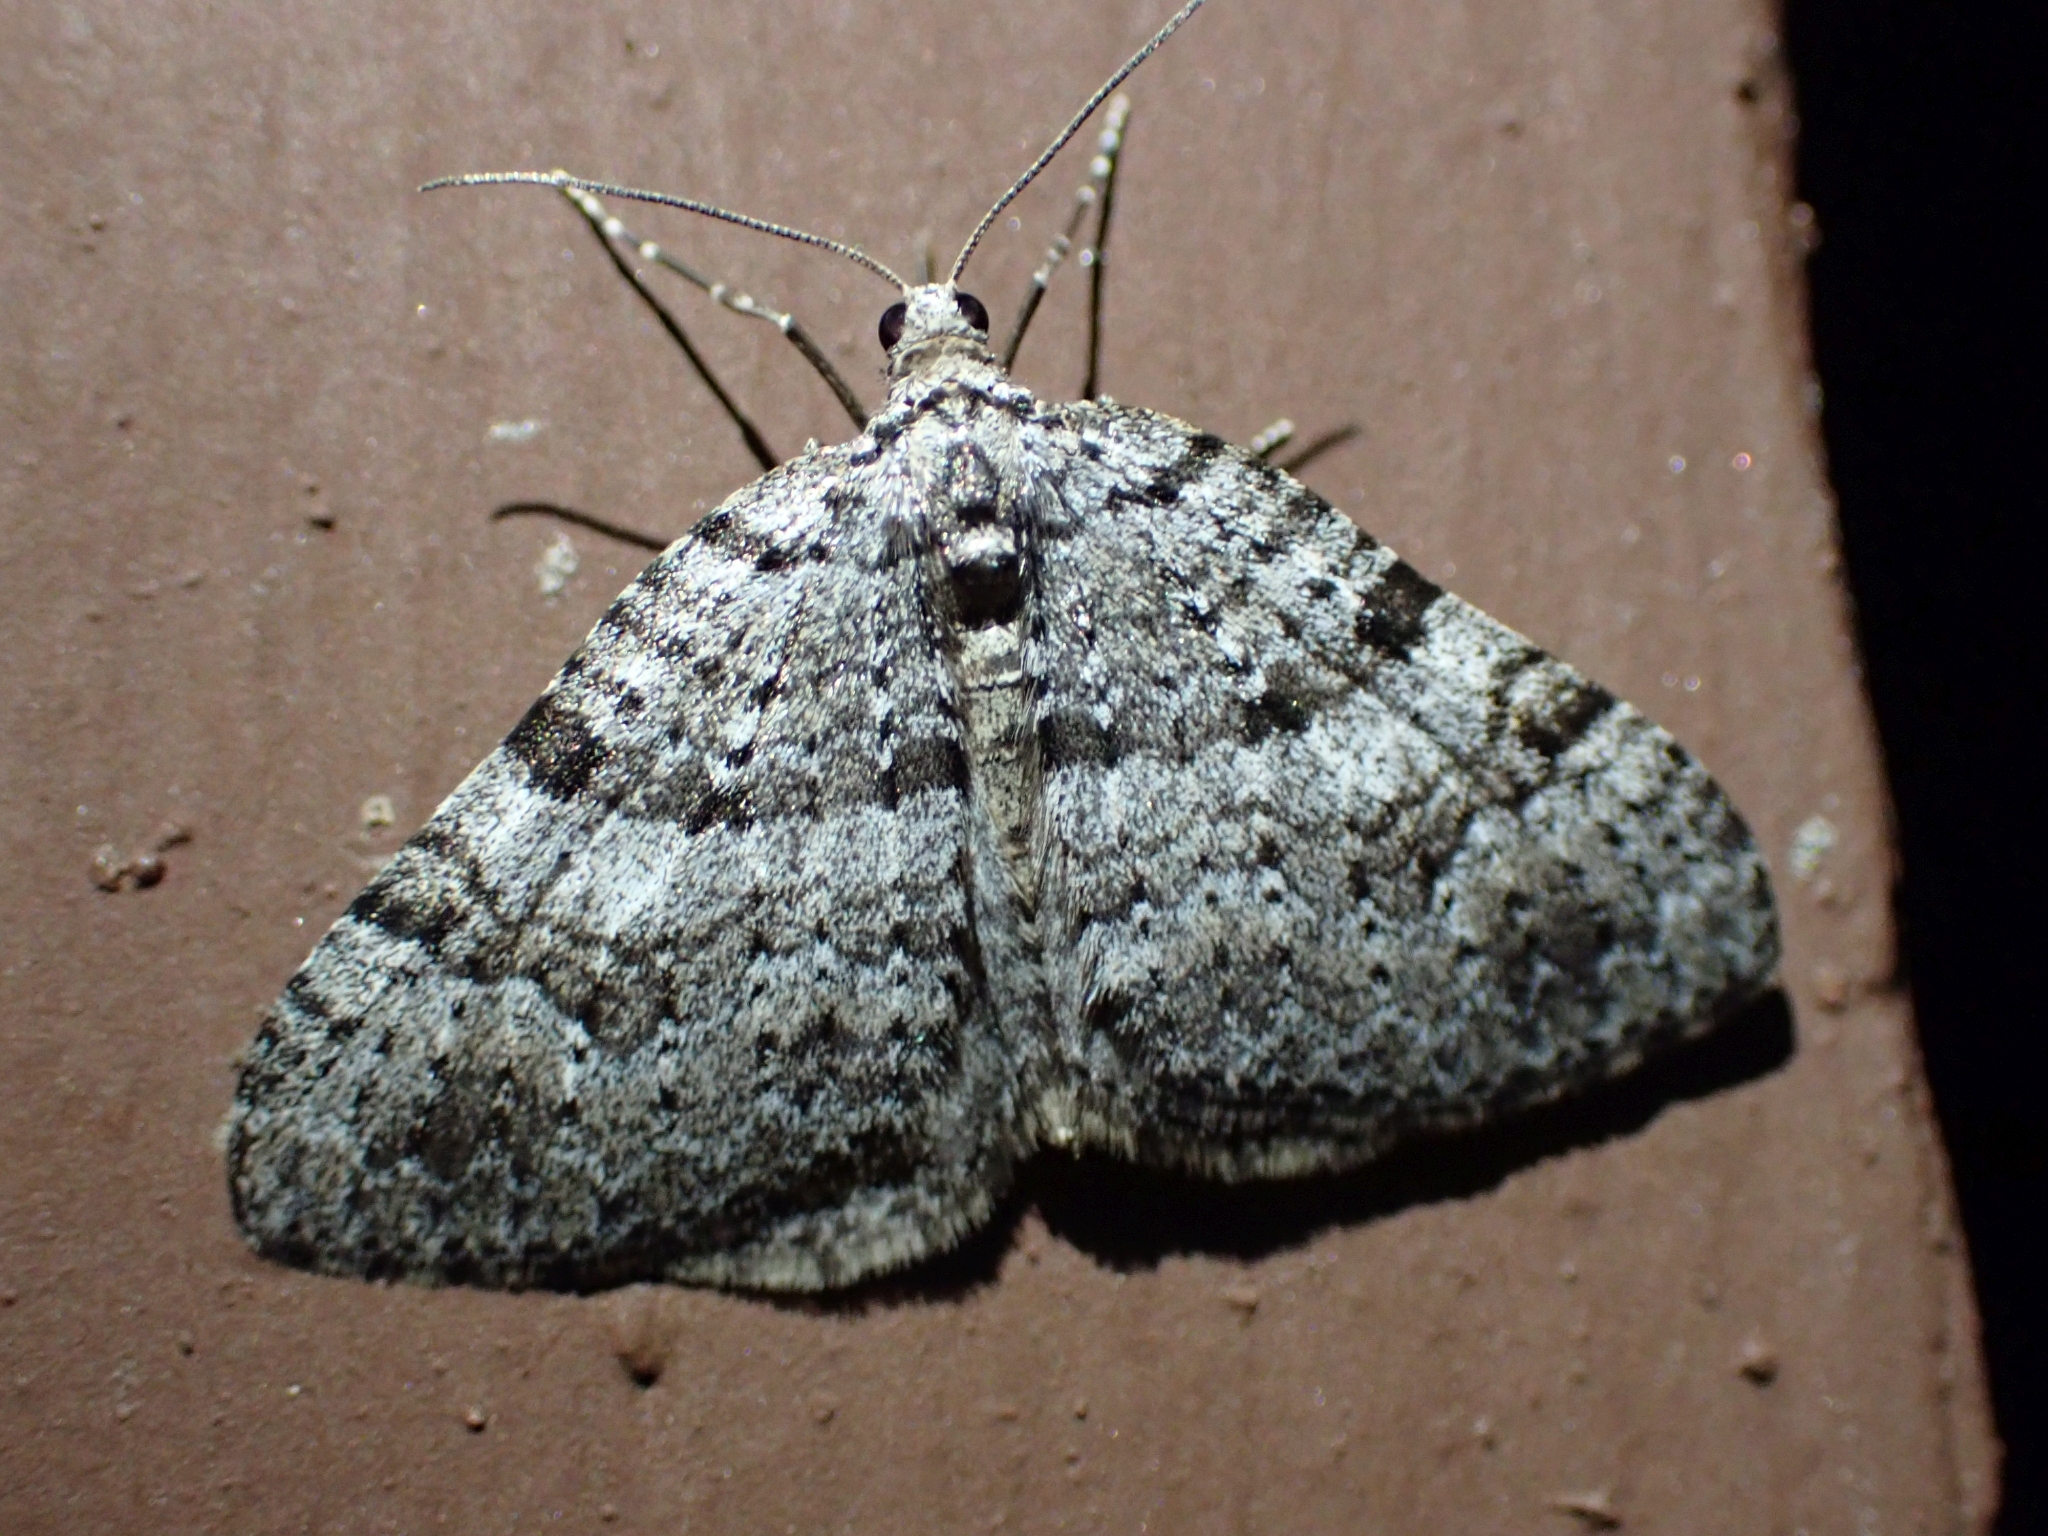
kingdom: Animalia
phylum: Arthropoda
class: Insecta
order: Lepidoptera
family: Geometridae
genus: Perizoma
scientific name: Perizoma curvilinea
